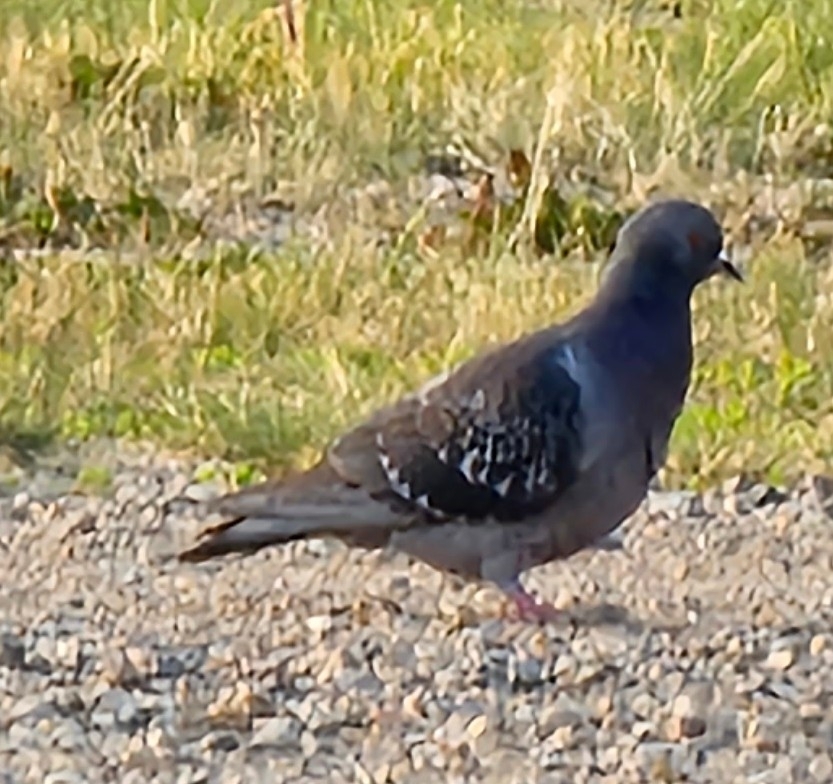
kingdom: Animalia
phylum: Chordata
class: Aves
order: Columbiformes
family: Columbidae
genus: Columba
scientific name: Columba livia
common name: Rock pigeon
